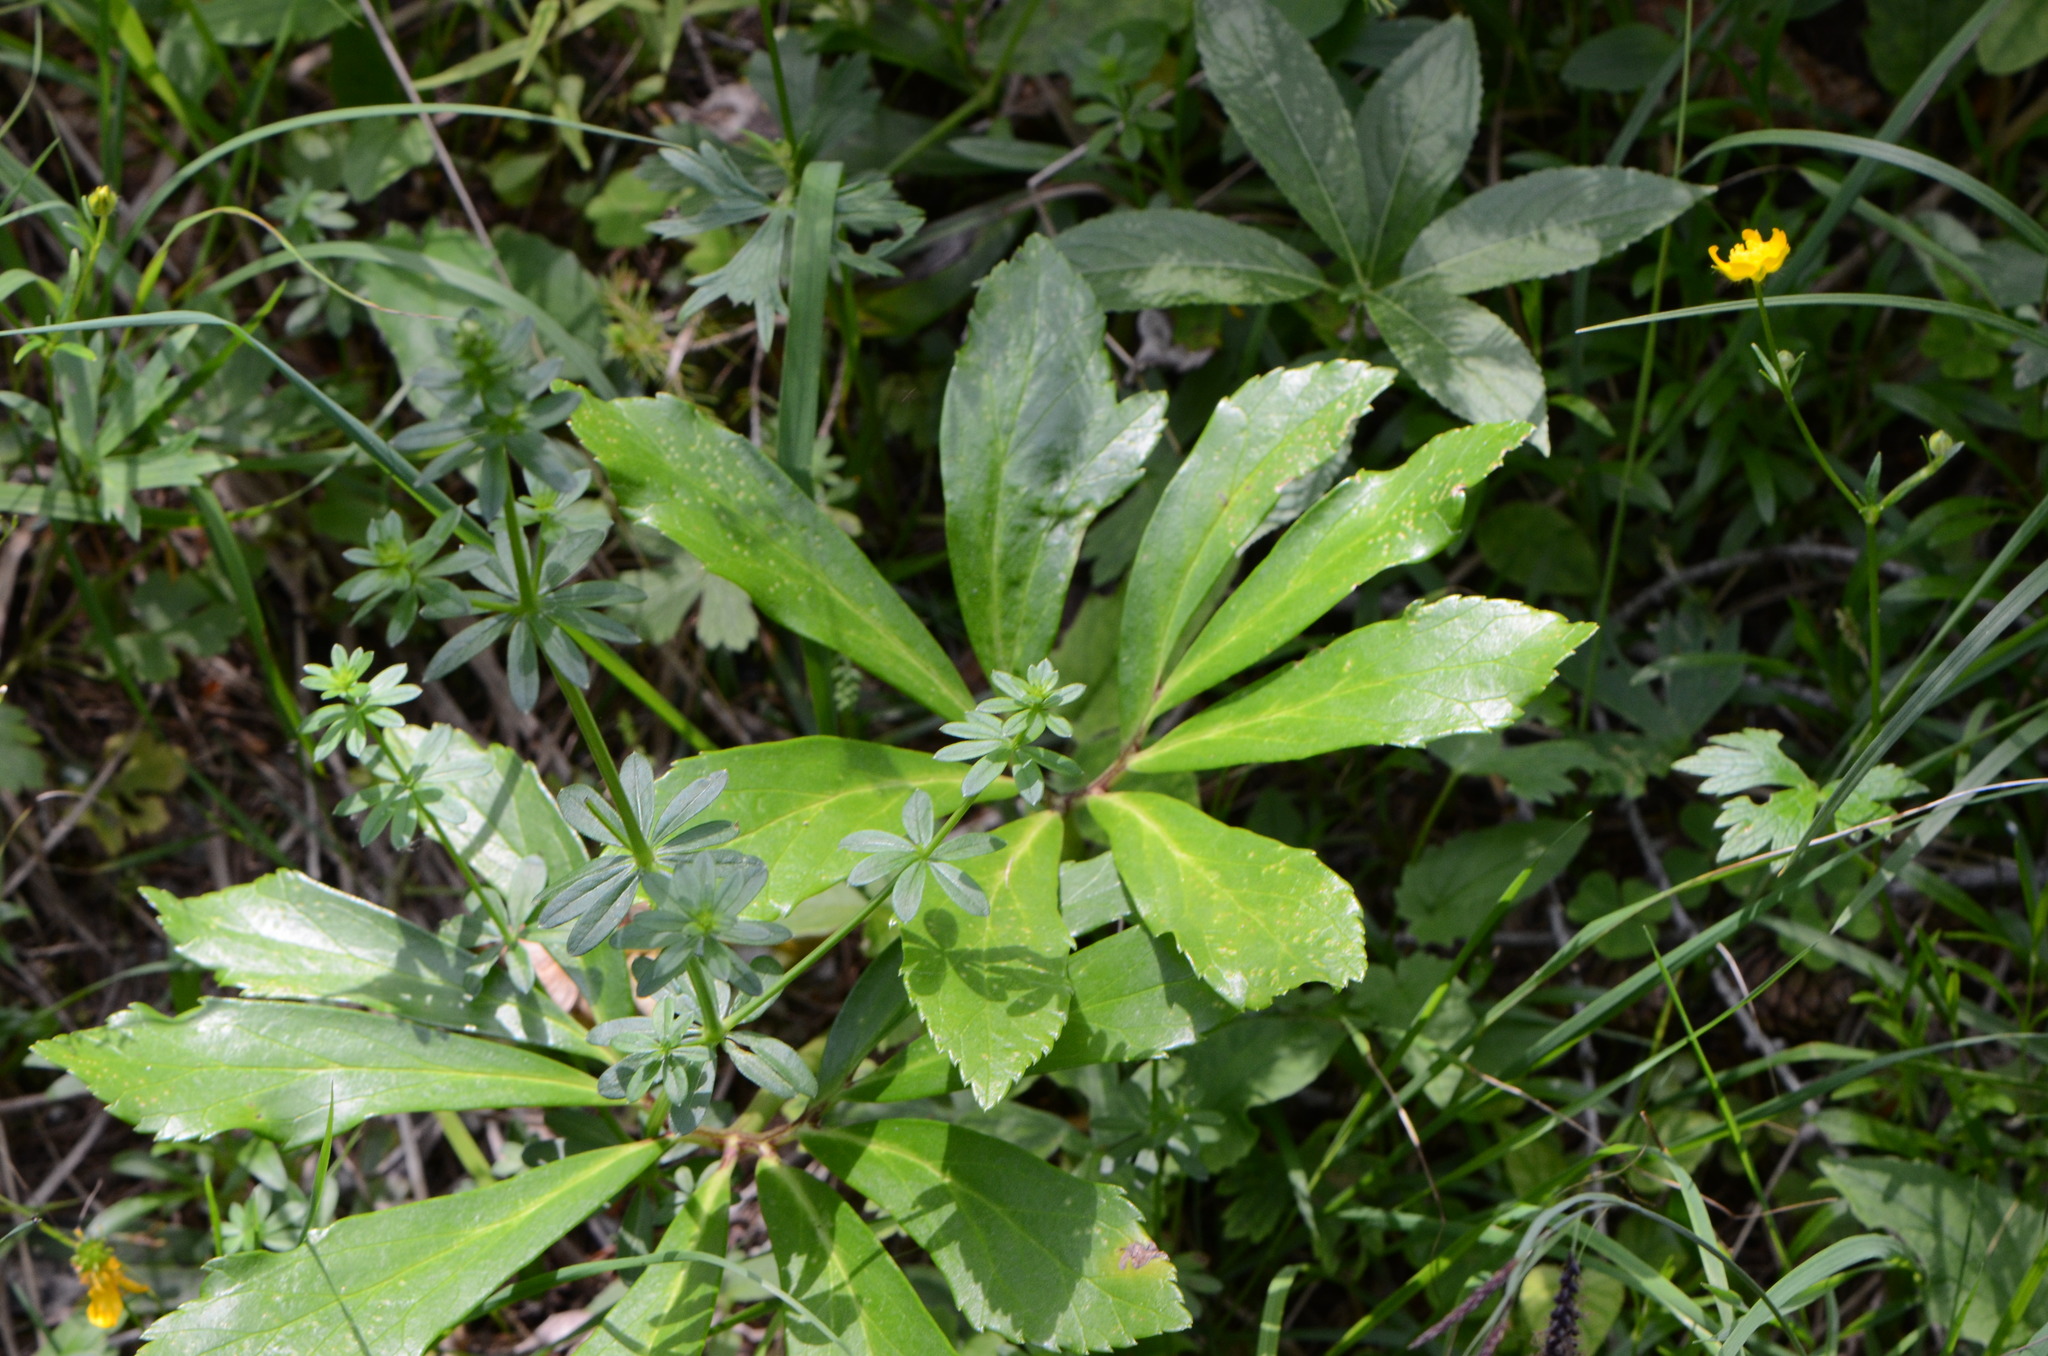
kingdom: Plantae
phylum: Tracheophyta
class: Magnoliopsida
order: Ranunculales
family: Ranunculaceae
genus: Helleborus
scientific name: Helleborus niger
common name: Black hellebore
